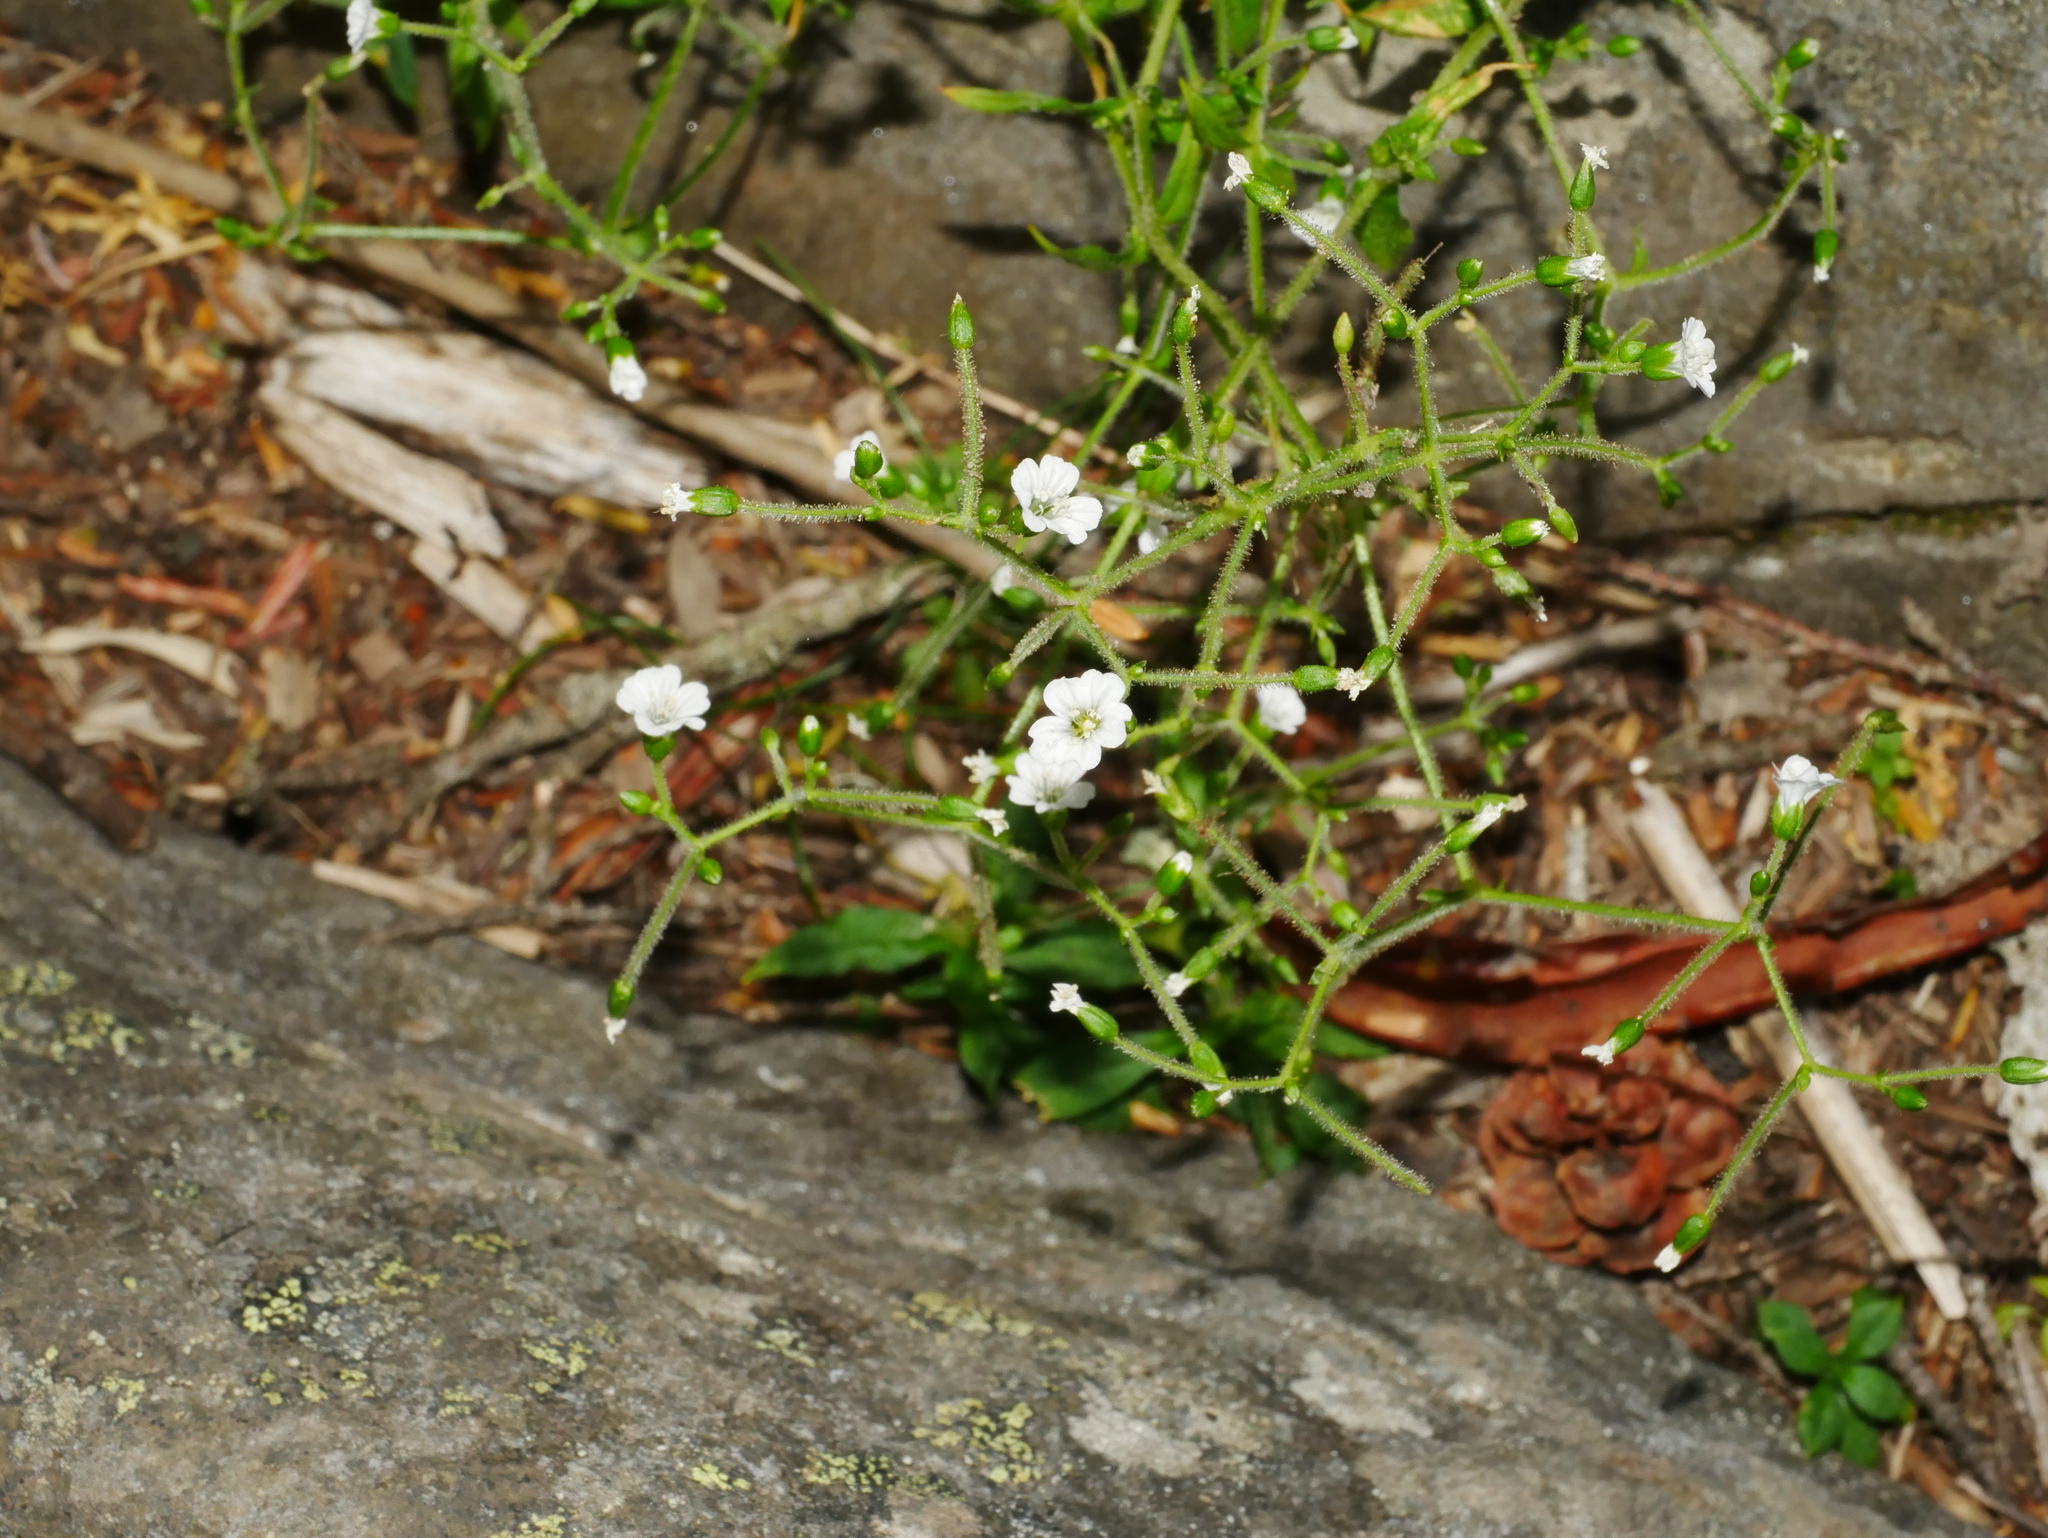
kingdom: Plantae
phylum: Tracheophyta
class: Magnoliopsida
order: Caryophyllales
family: Caryophyllaceae
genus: Cerastium
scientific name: Cerastium subpilosum
